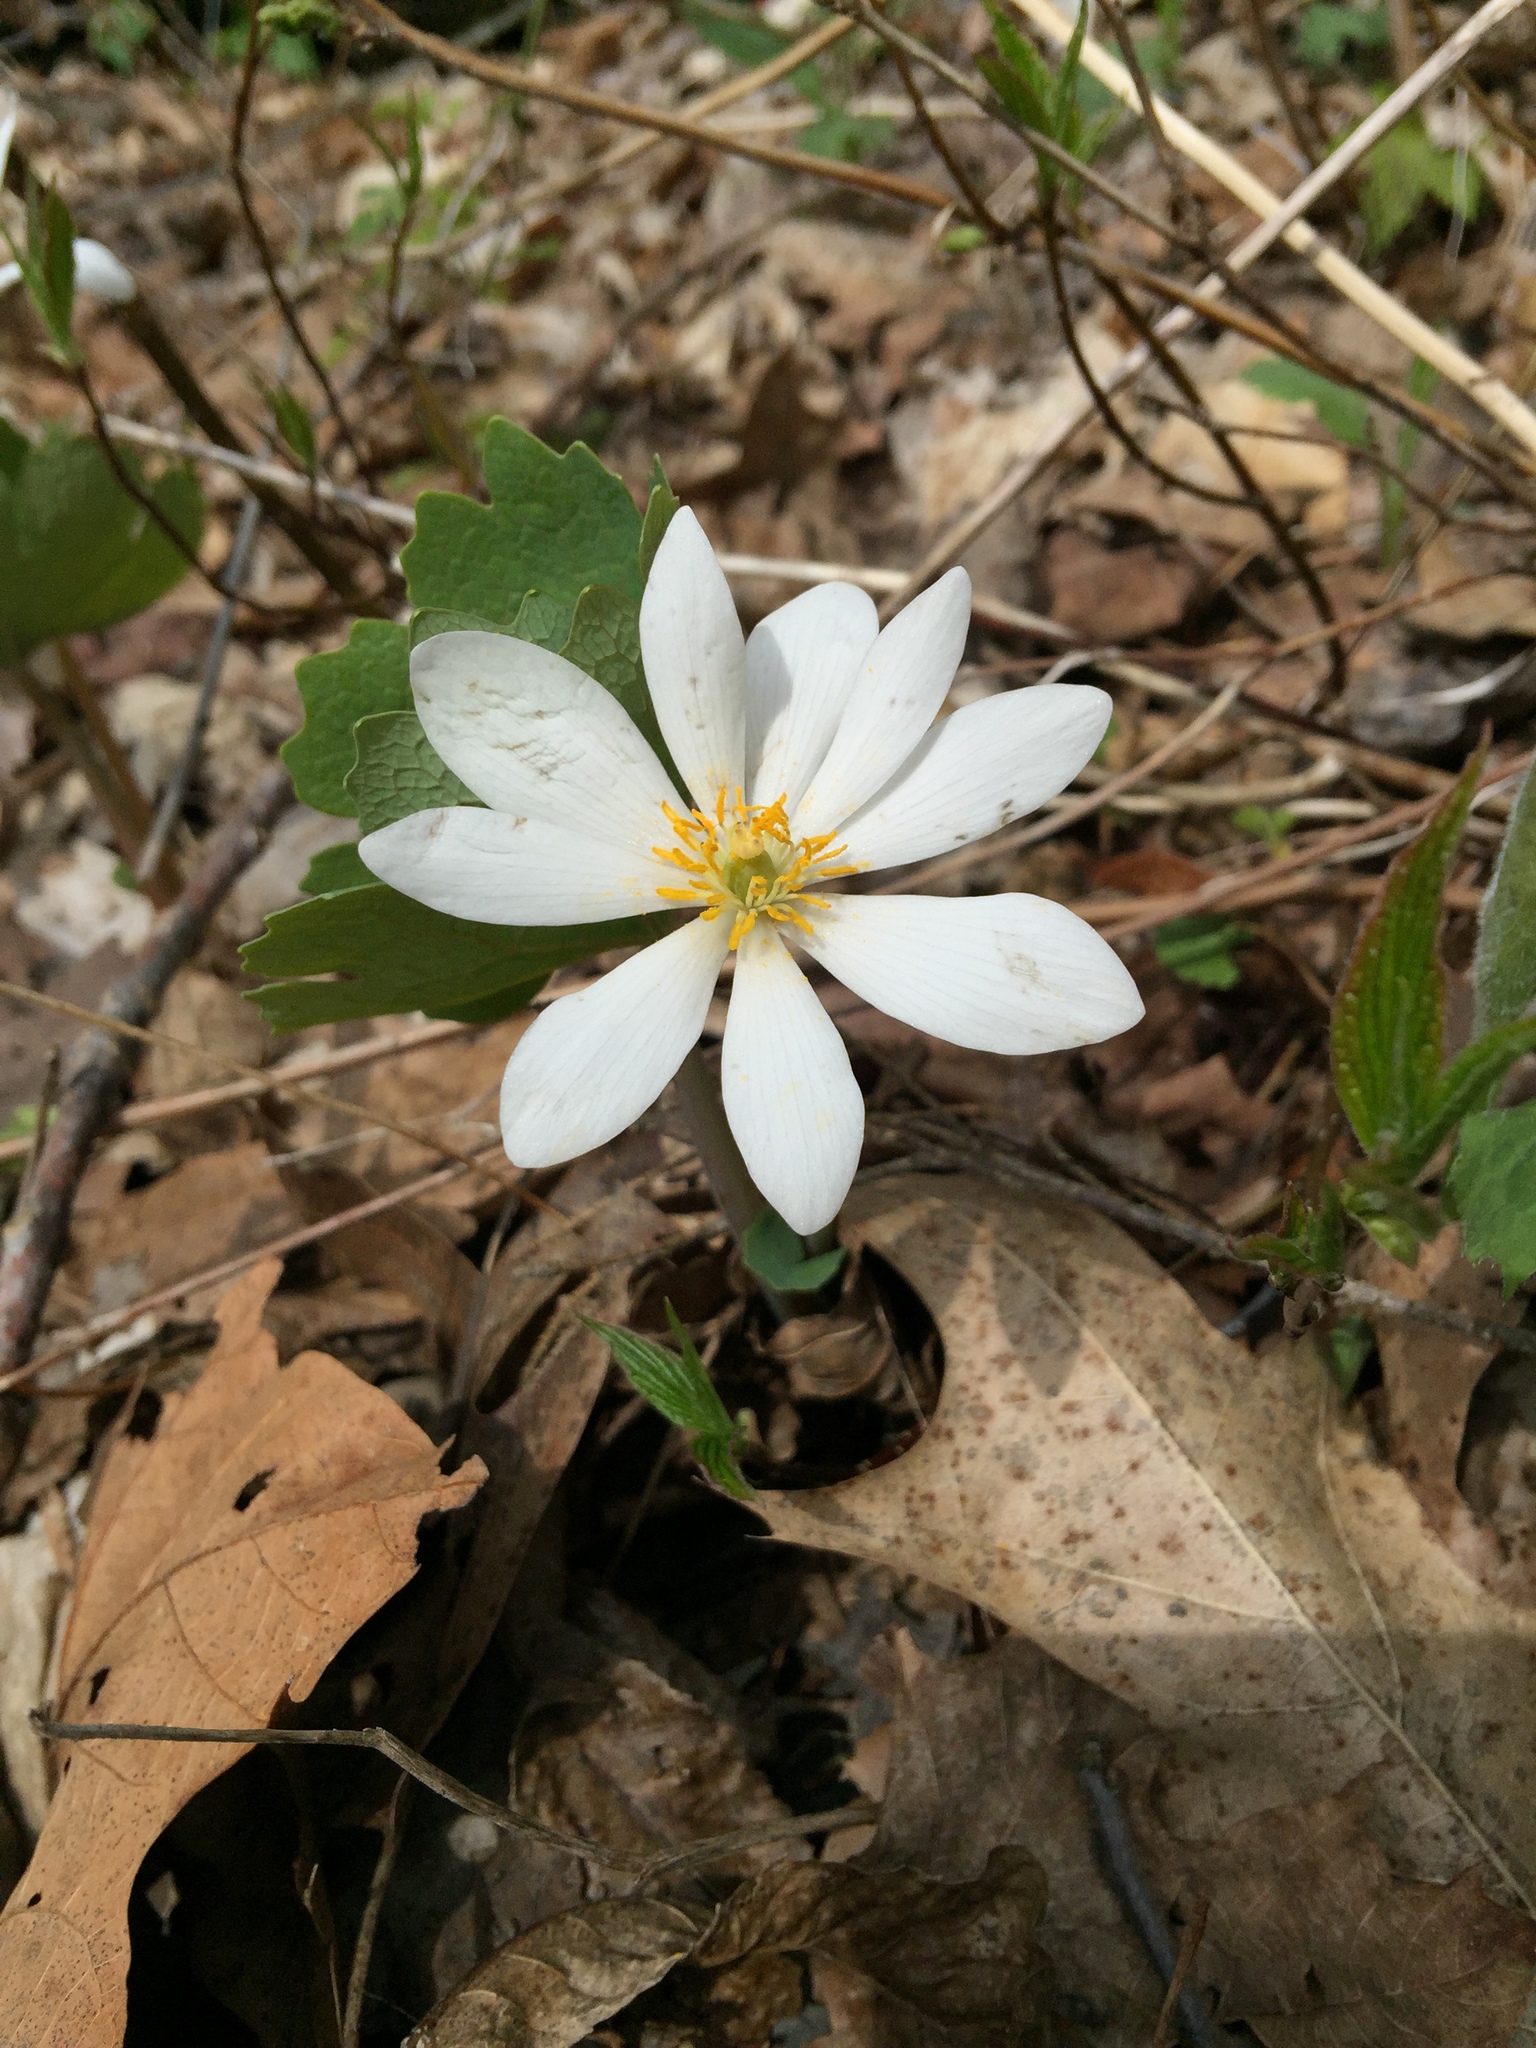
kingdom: Plantae
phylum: Tracheophyta
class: Magnoliopsida
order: Ranunculales
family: Papaveraceae
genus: Sanguinaria
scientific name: Sanguinaria canadensis
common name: Bloodroot
